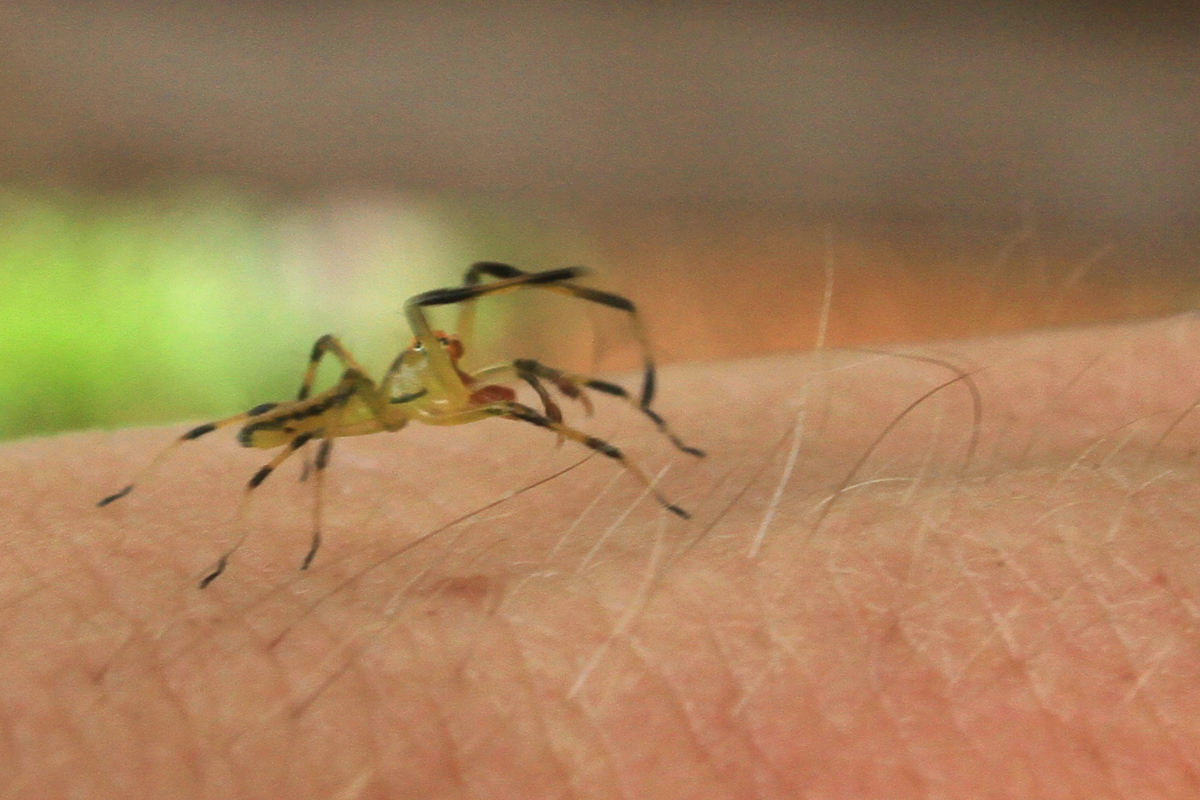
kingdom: Animalia
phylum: Arthropoda
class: Arachnida
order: Araneae
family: Salticidae
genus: Lyssomanes
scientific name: Lyssomanes viridis
